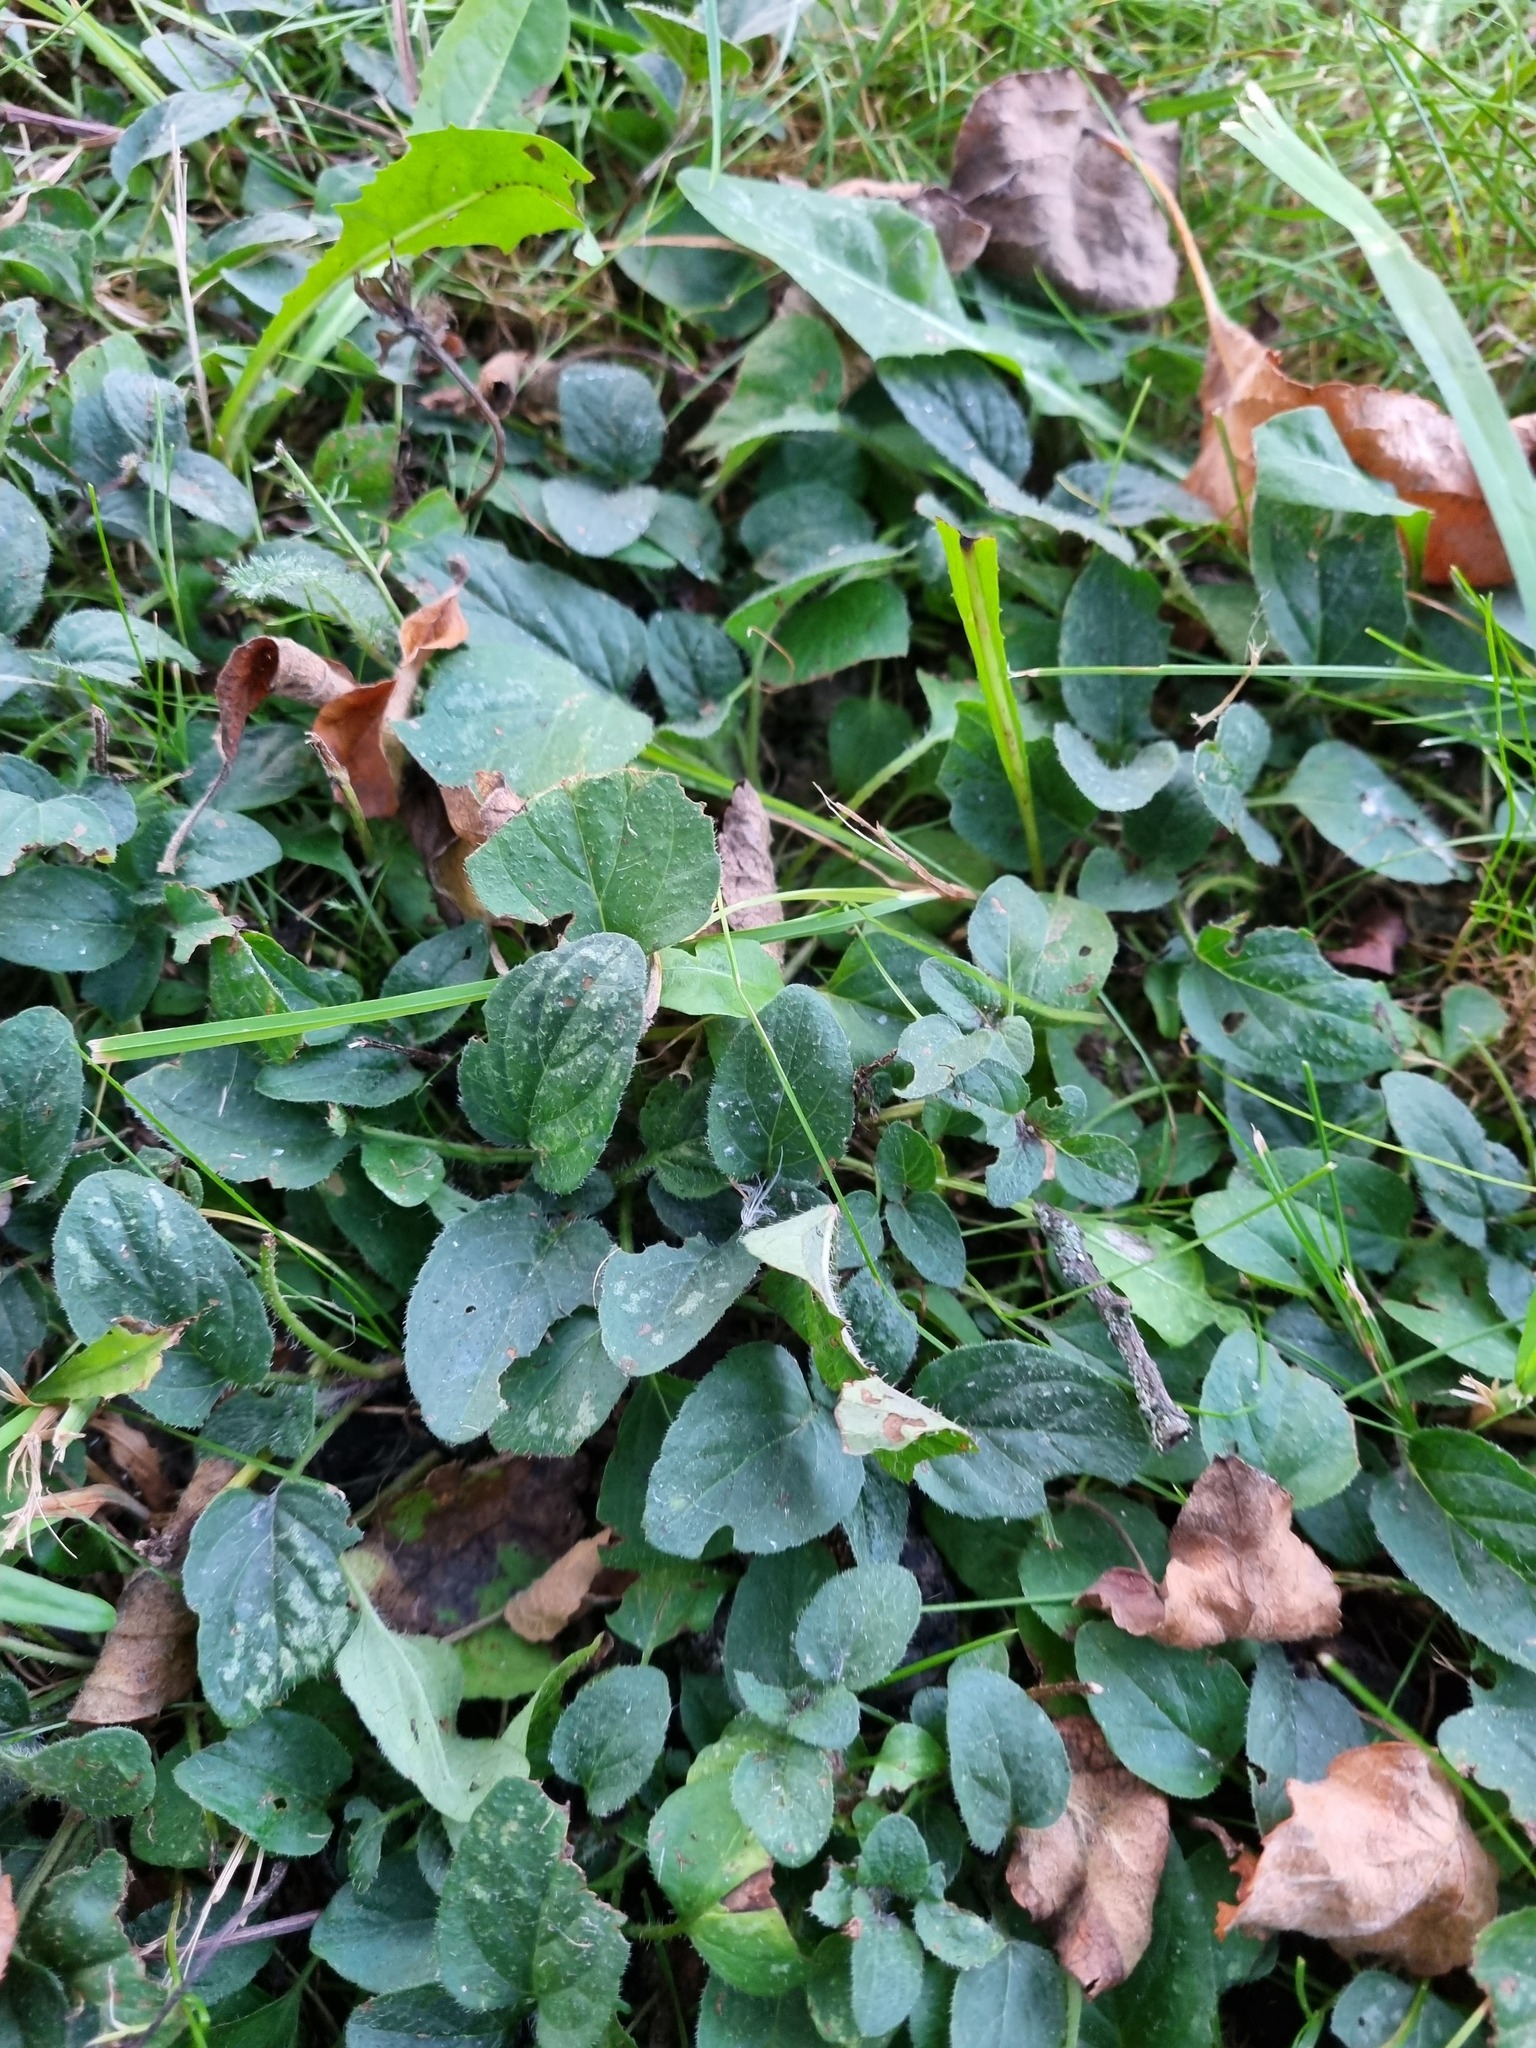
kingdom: Plantae
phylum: Tracheophyta
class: Magnoliopsida
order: Lamiales
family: Lamiaceae
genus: Prunella
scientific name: Prunella vulgaris
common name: Heal-all
